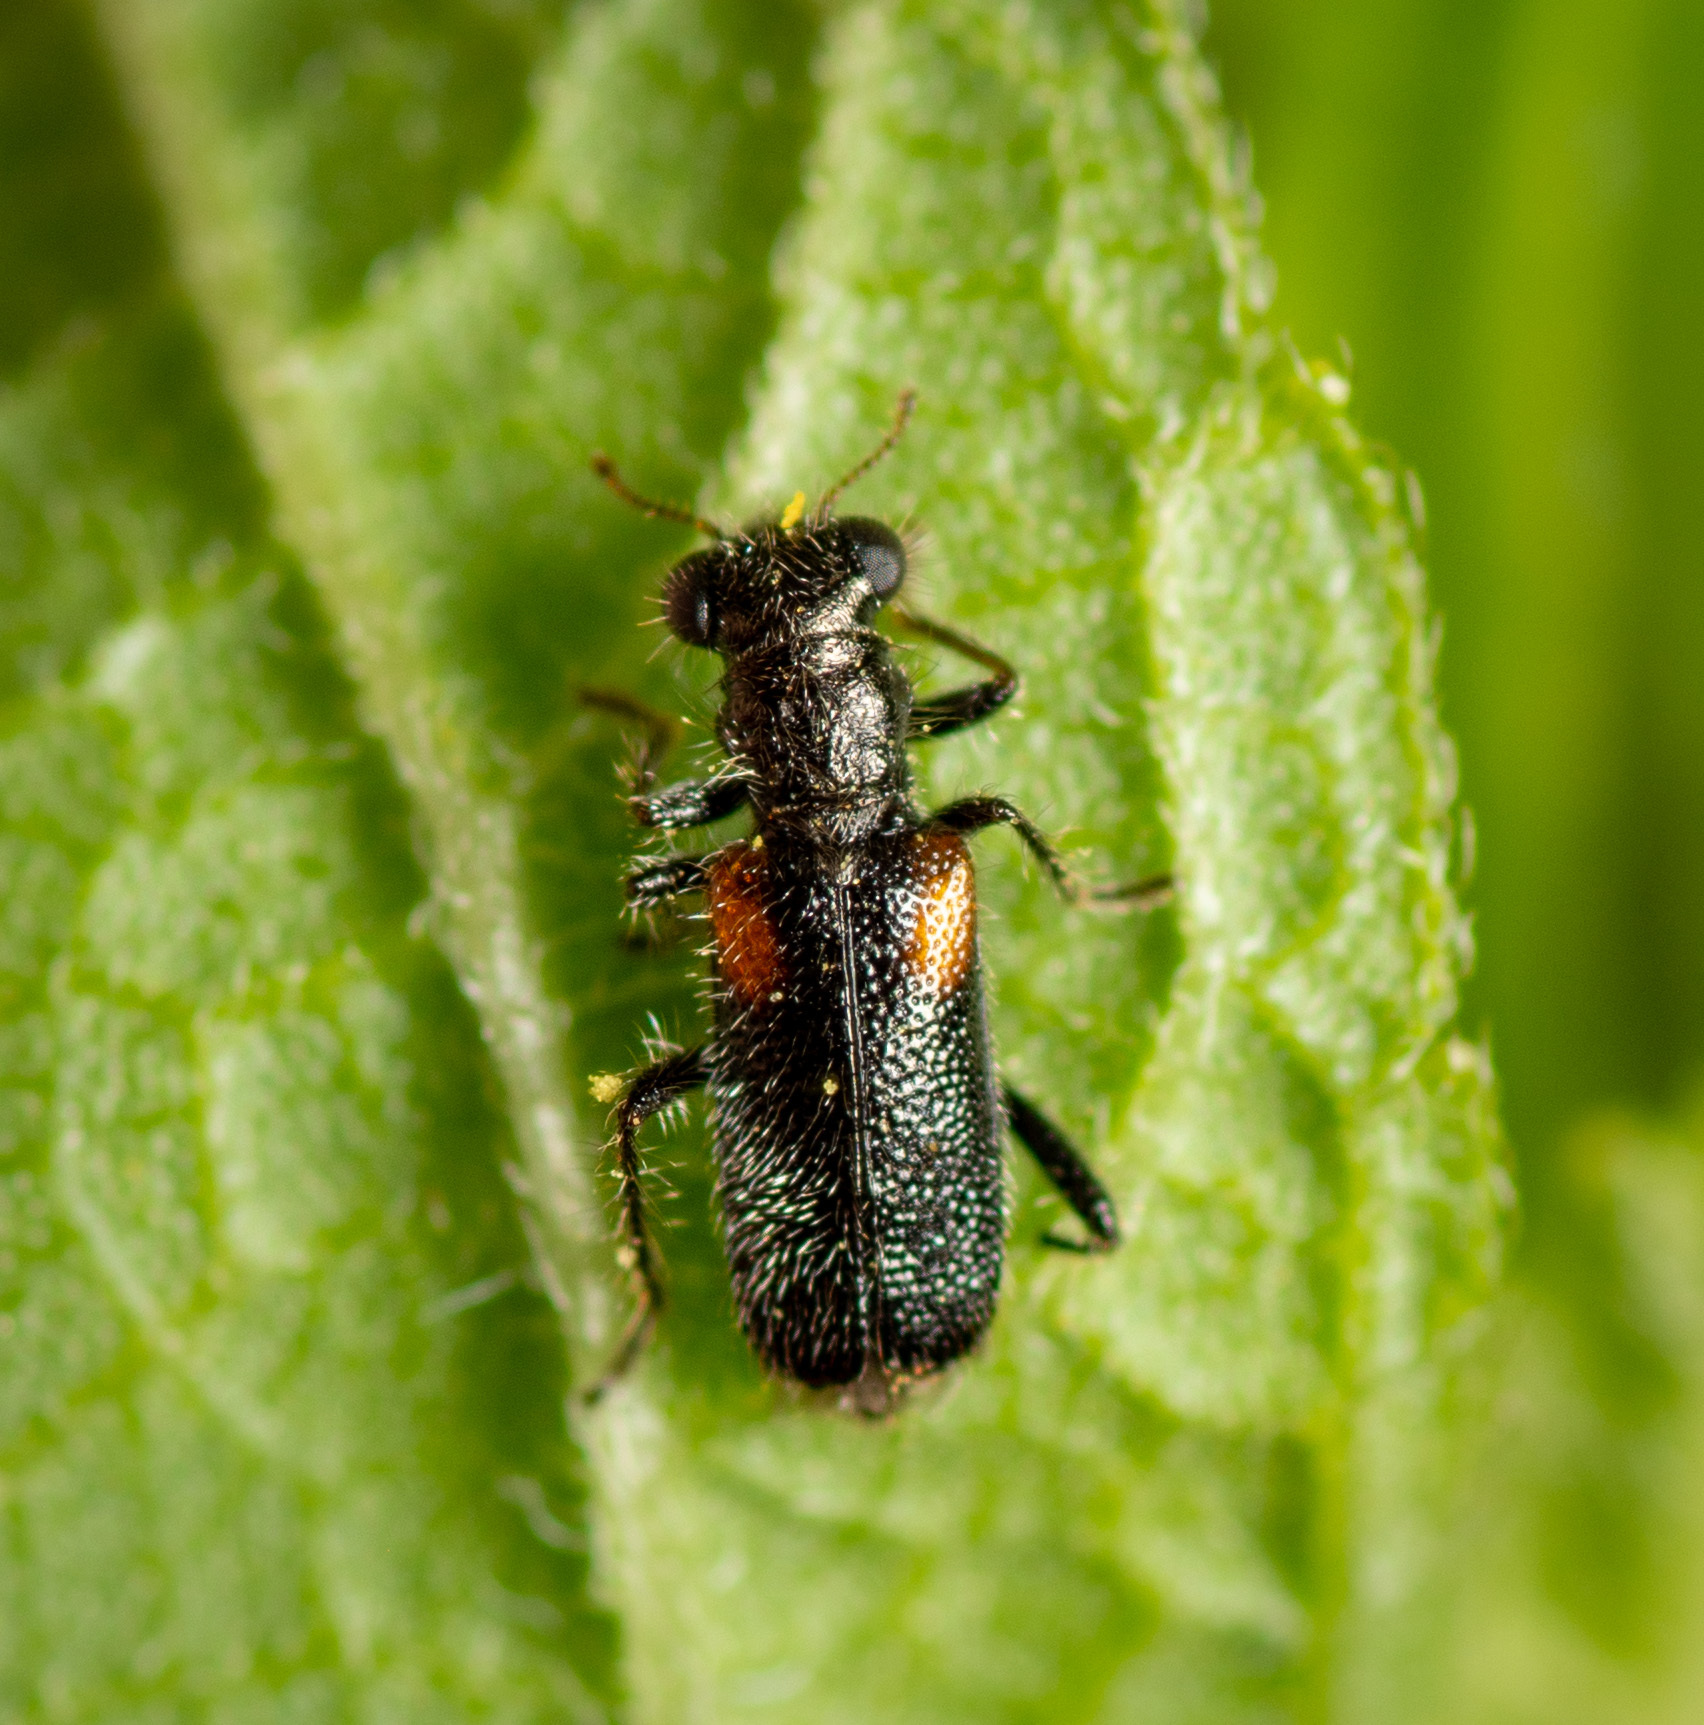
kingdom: Animalia
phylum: Arthropoda
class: Insecta
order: Coleoptera
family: Cleridae
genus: Phyllobaenus
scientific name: Phyllobaenus humeralis
